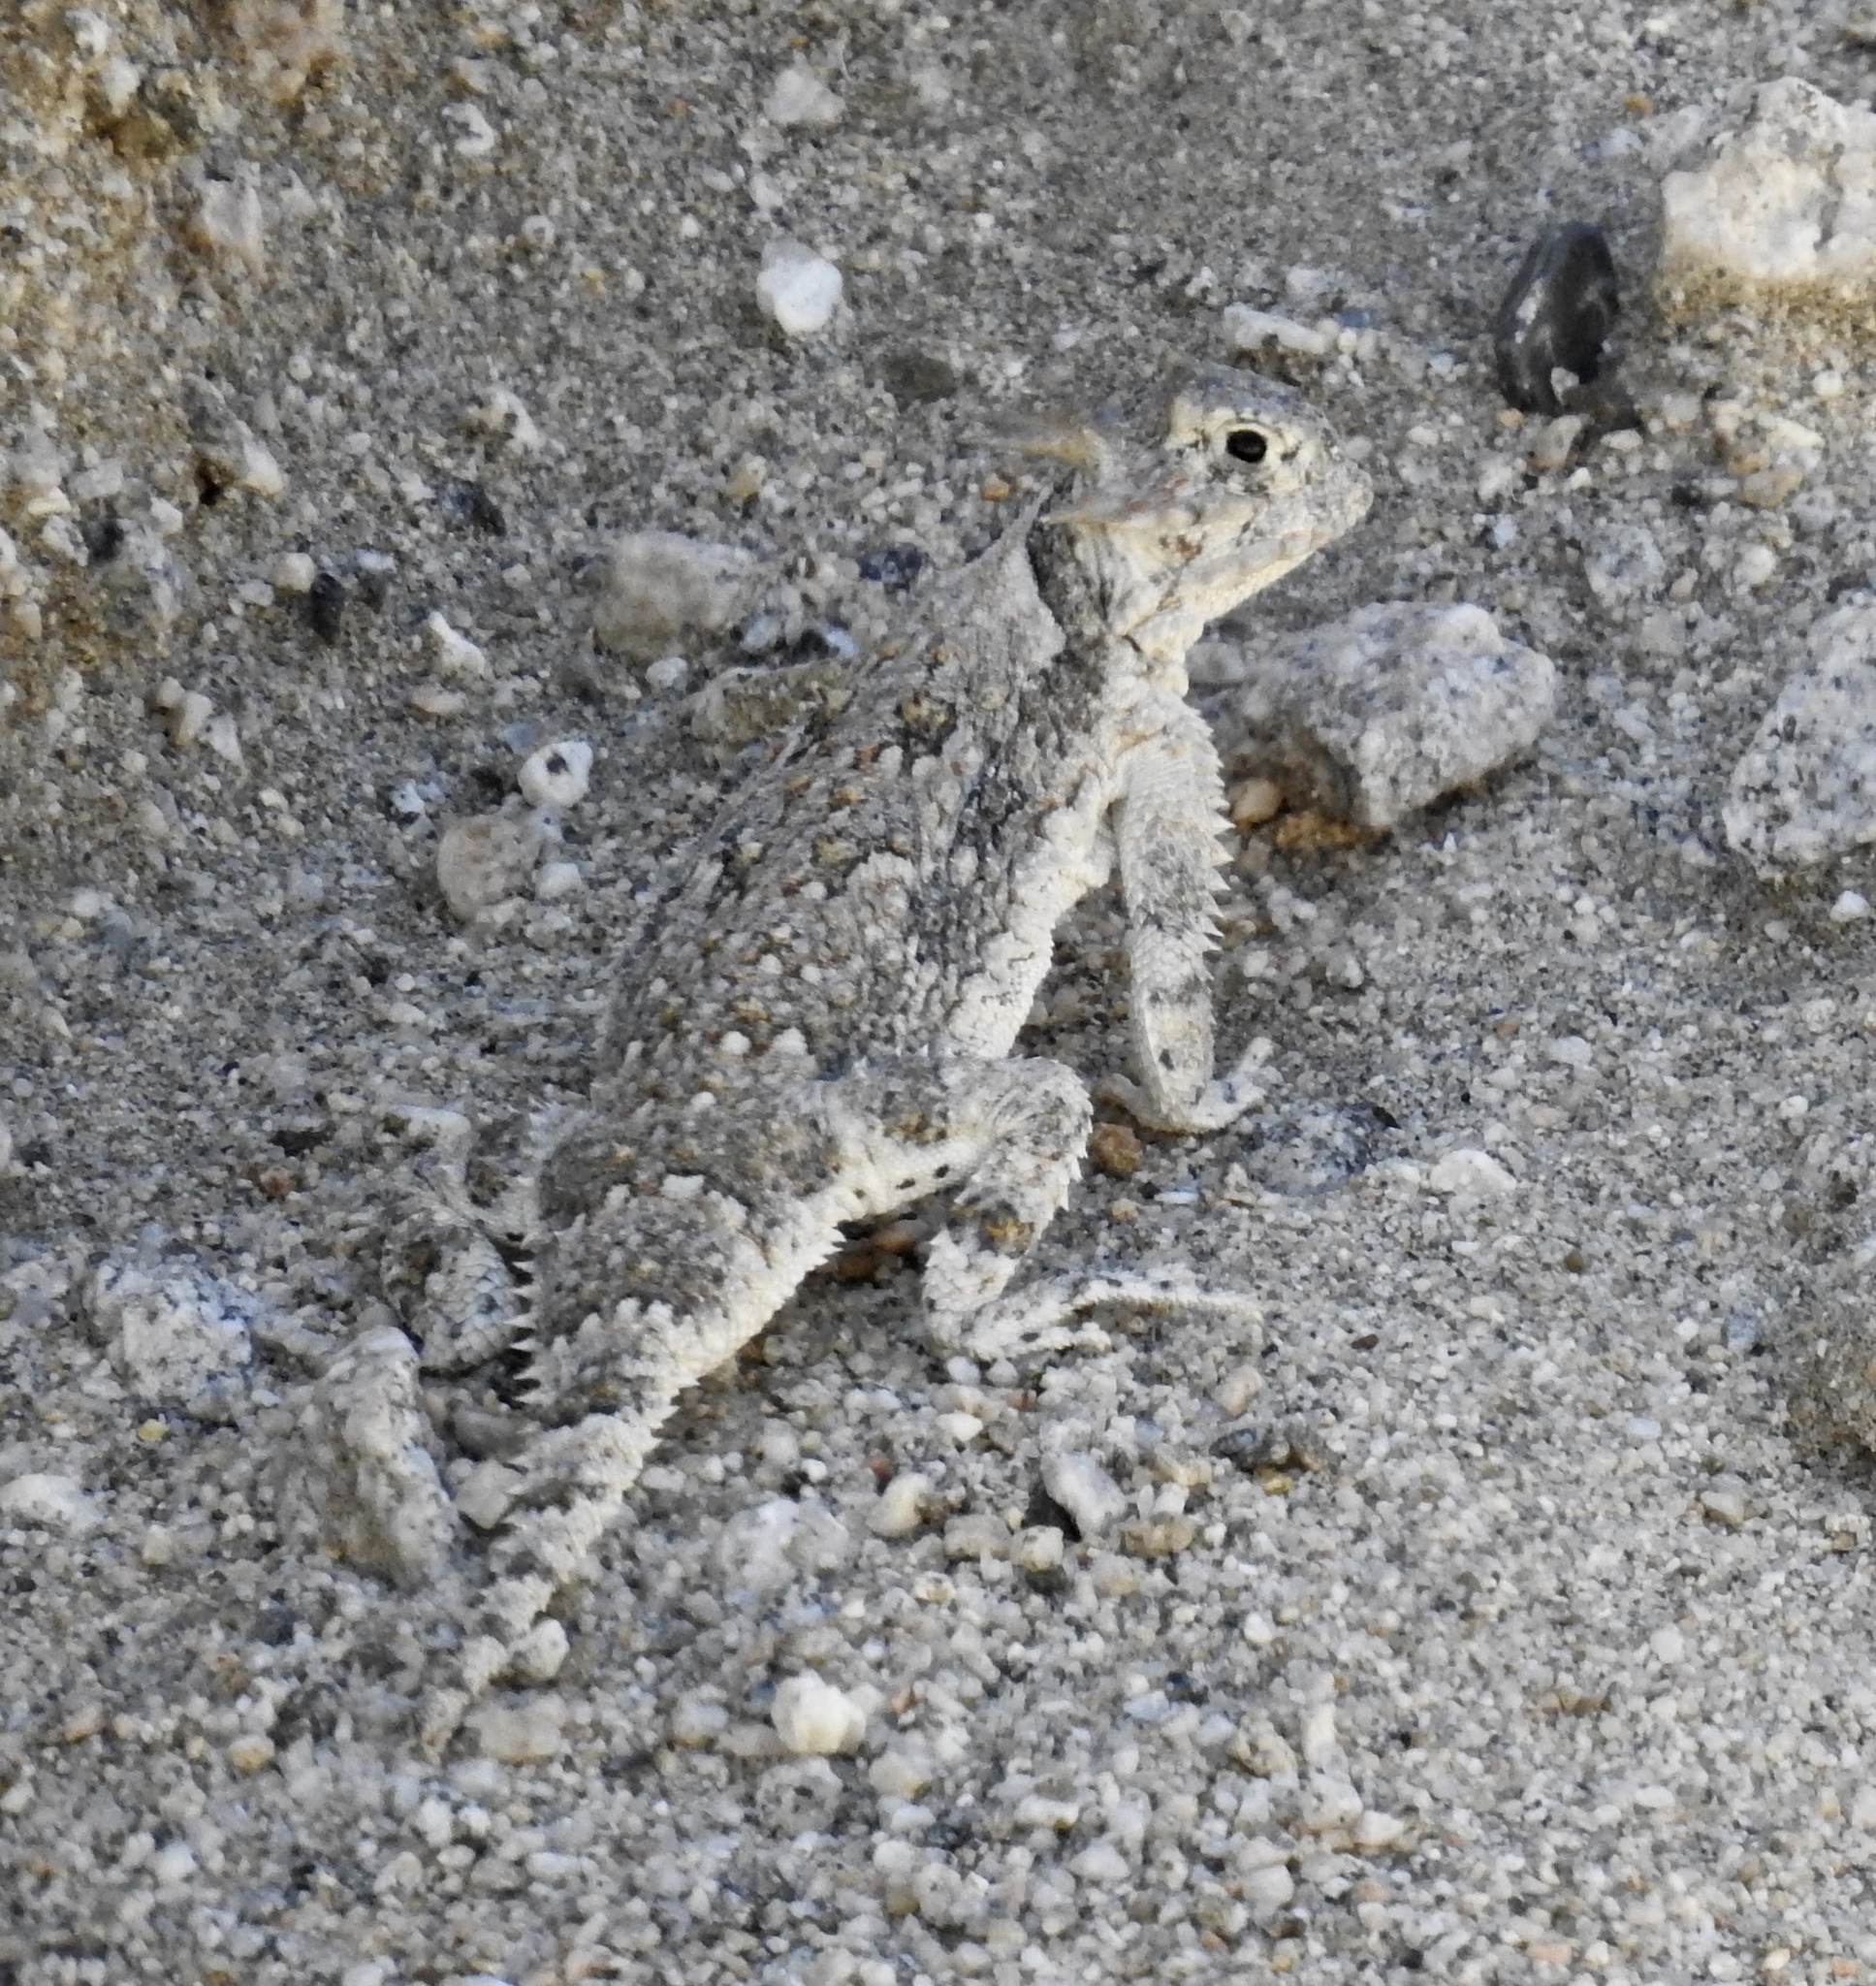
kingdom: Animalia
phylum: Chordata
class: Squamata
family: Phrynosomatidae
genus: Phrynosoma
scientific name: Phrynosoma platyrhinos
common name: Desert horned lizard
